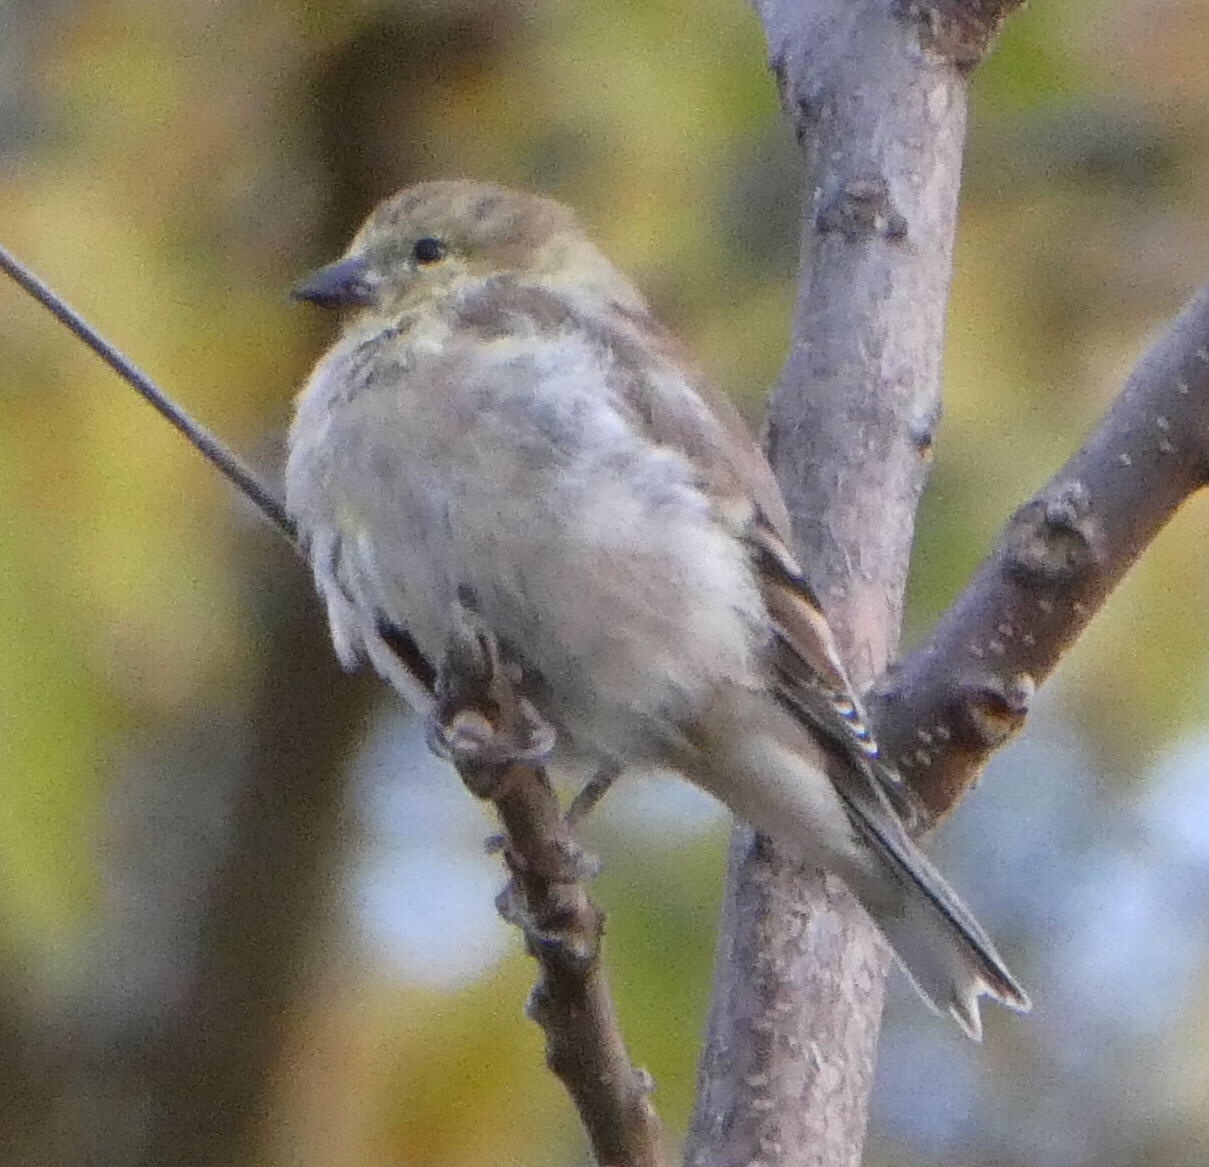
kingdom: Animalia
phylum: Chordata
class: Aves
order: Passeriformes
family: Fringillidae
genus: Spinus
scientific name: Spinus tristis
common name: American goldfinch
